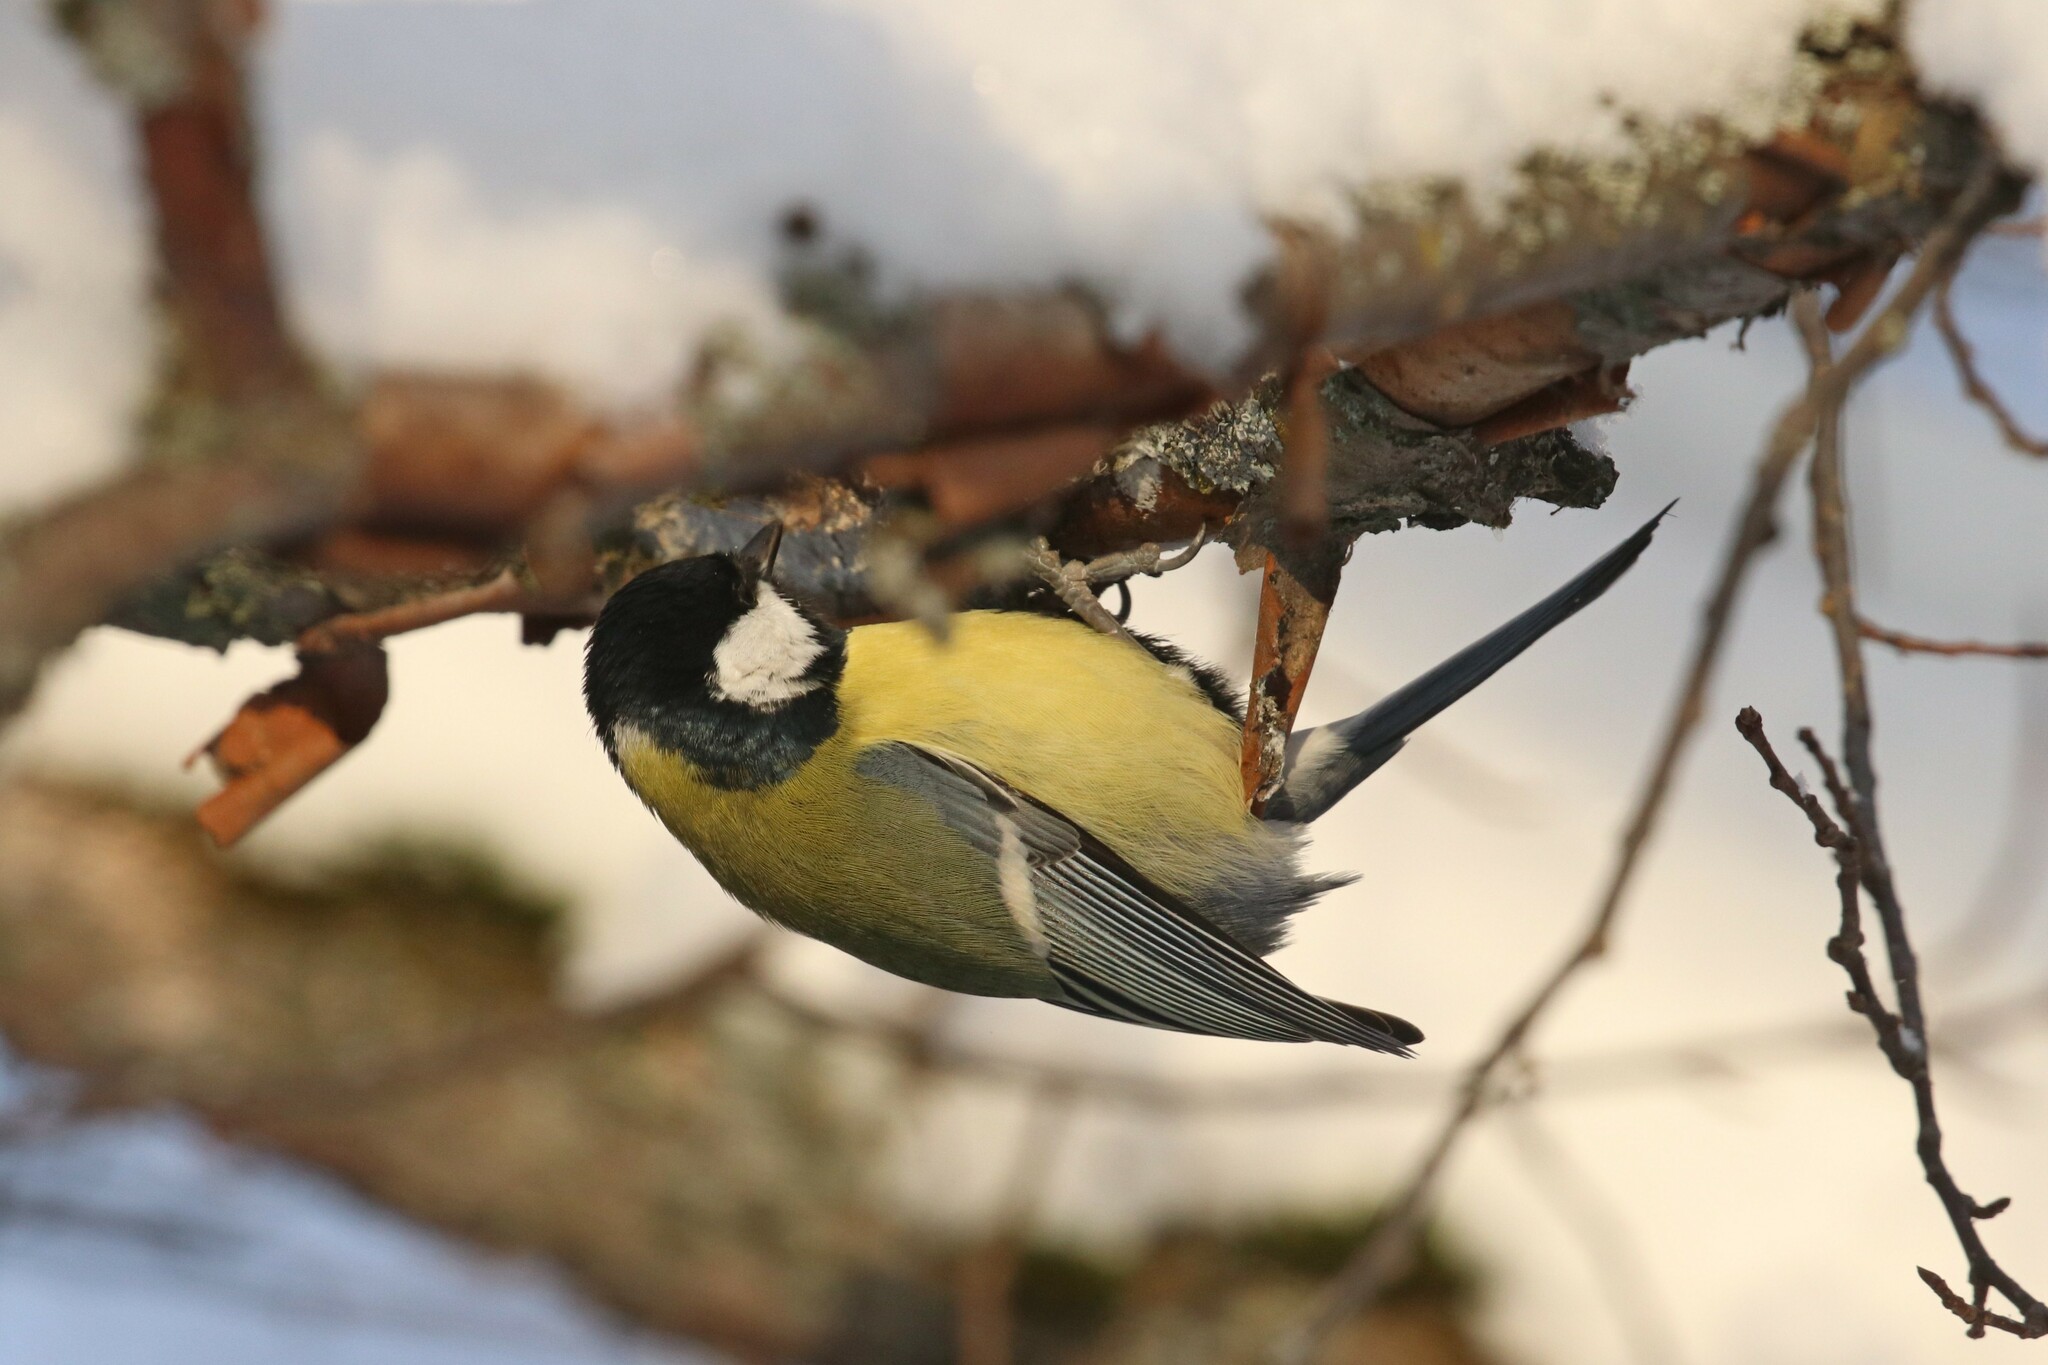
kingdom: Animalia
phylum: Chordata
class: Aves
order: Passeriformes
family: Paridae
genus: Parus
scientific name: Parus major
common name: Great tit
